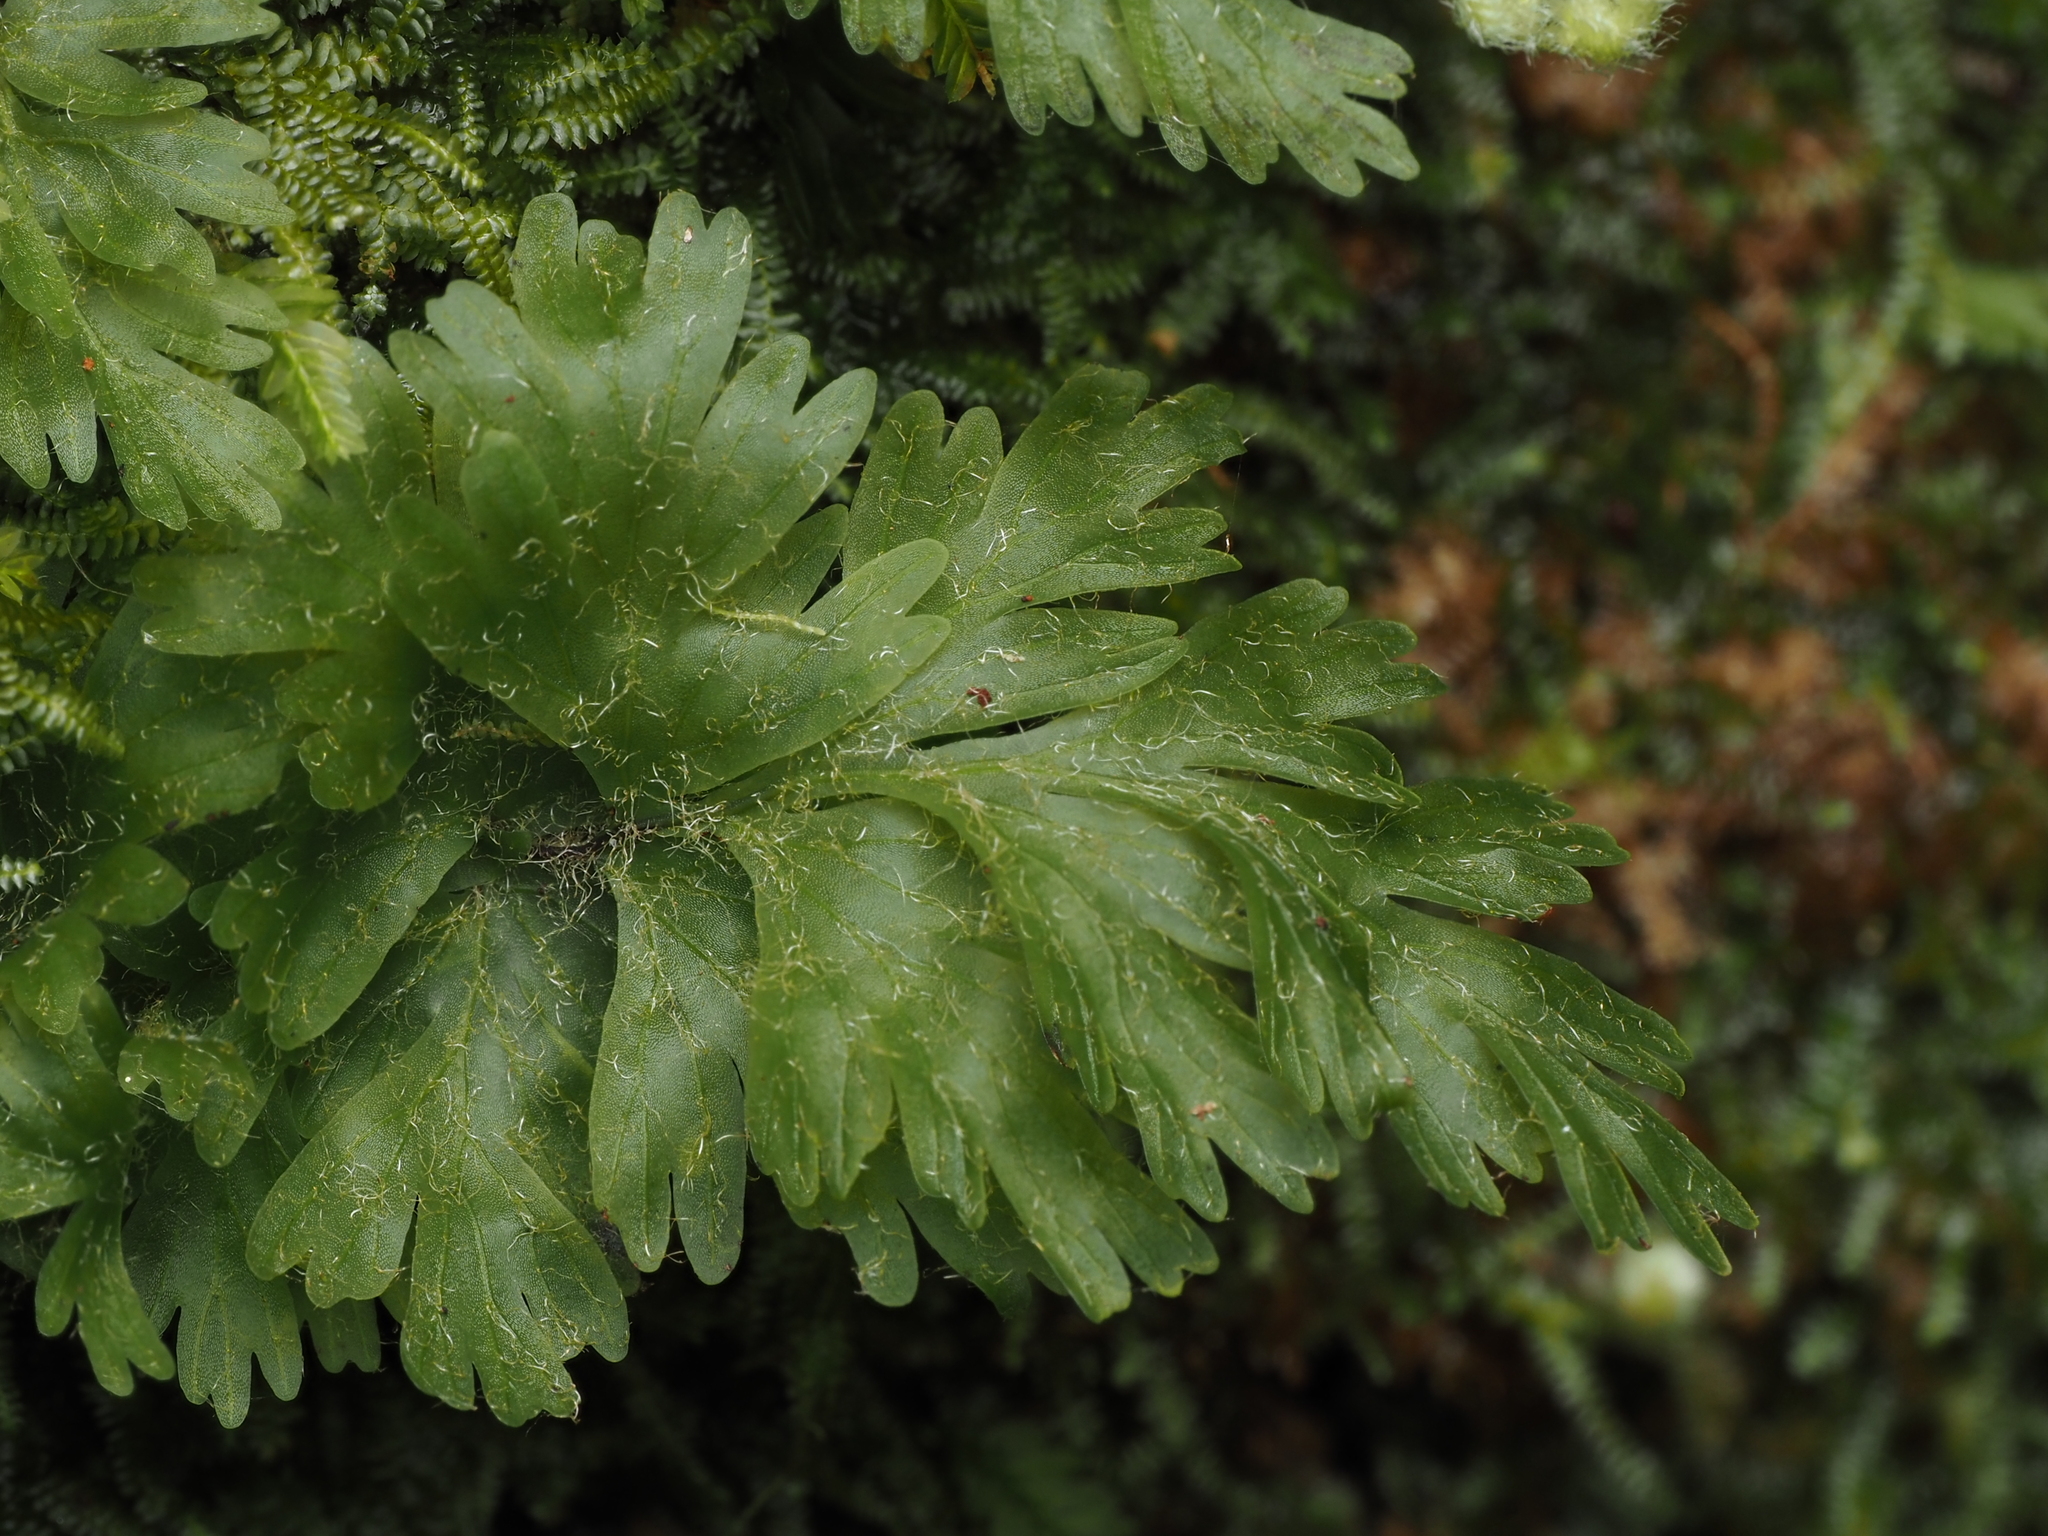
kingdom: Plantae
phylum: Tracheophyta
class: Polypodiopsida
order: Hymenophyllales
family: Hymenophyllaceae
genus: Hymenophyllum
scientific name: Hymenophyllum rufescens
